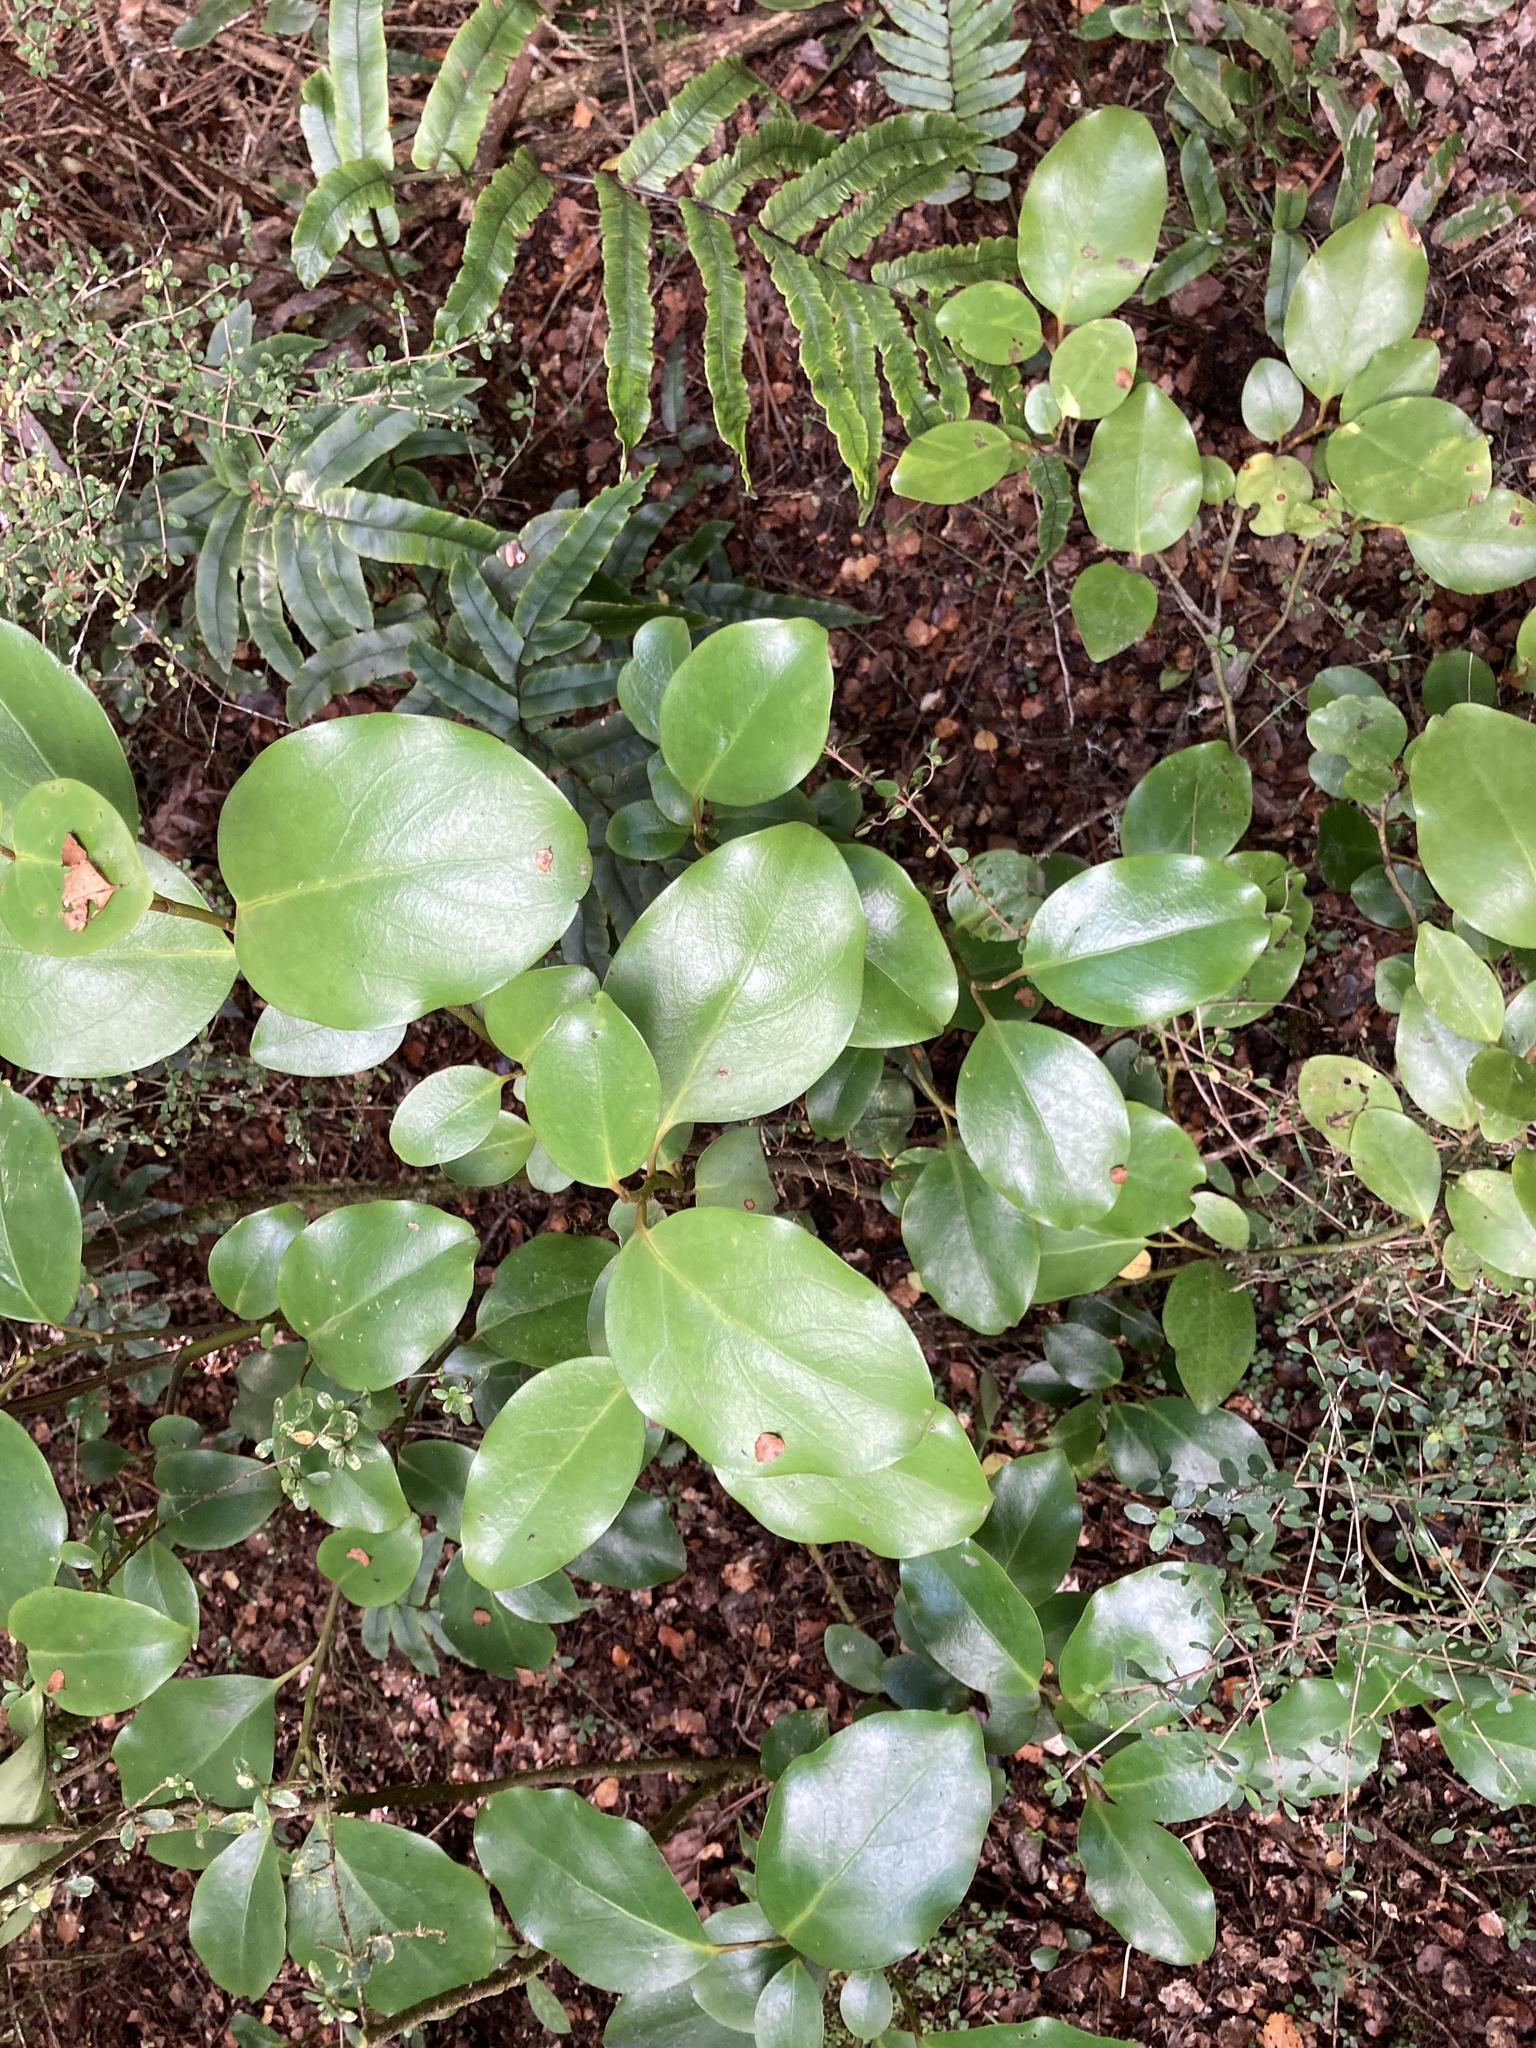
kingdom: Plantae
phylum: Tracheophyta
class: Magnoliopsida
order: Apiales
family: Griseliniaceae
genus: Griselinia
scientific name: Griselinia lucida
